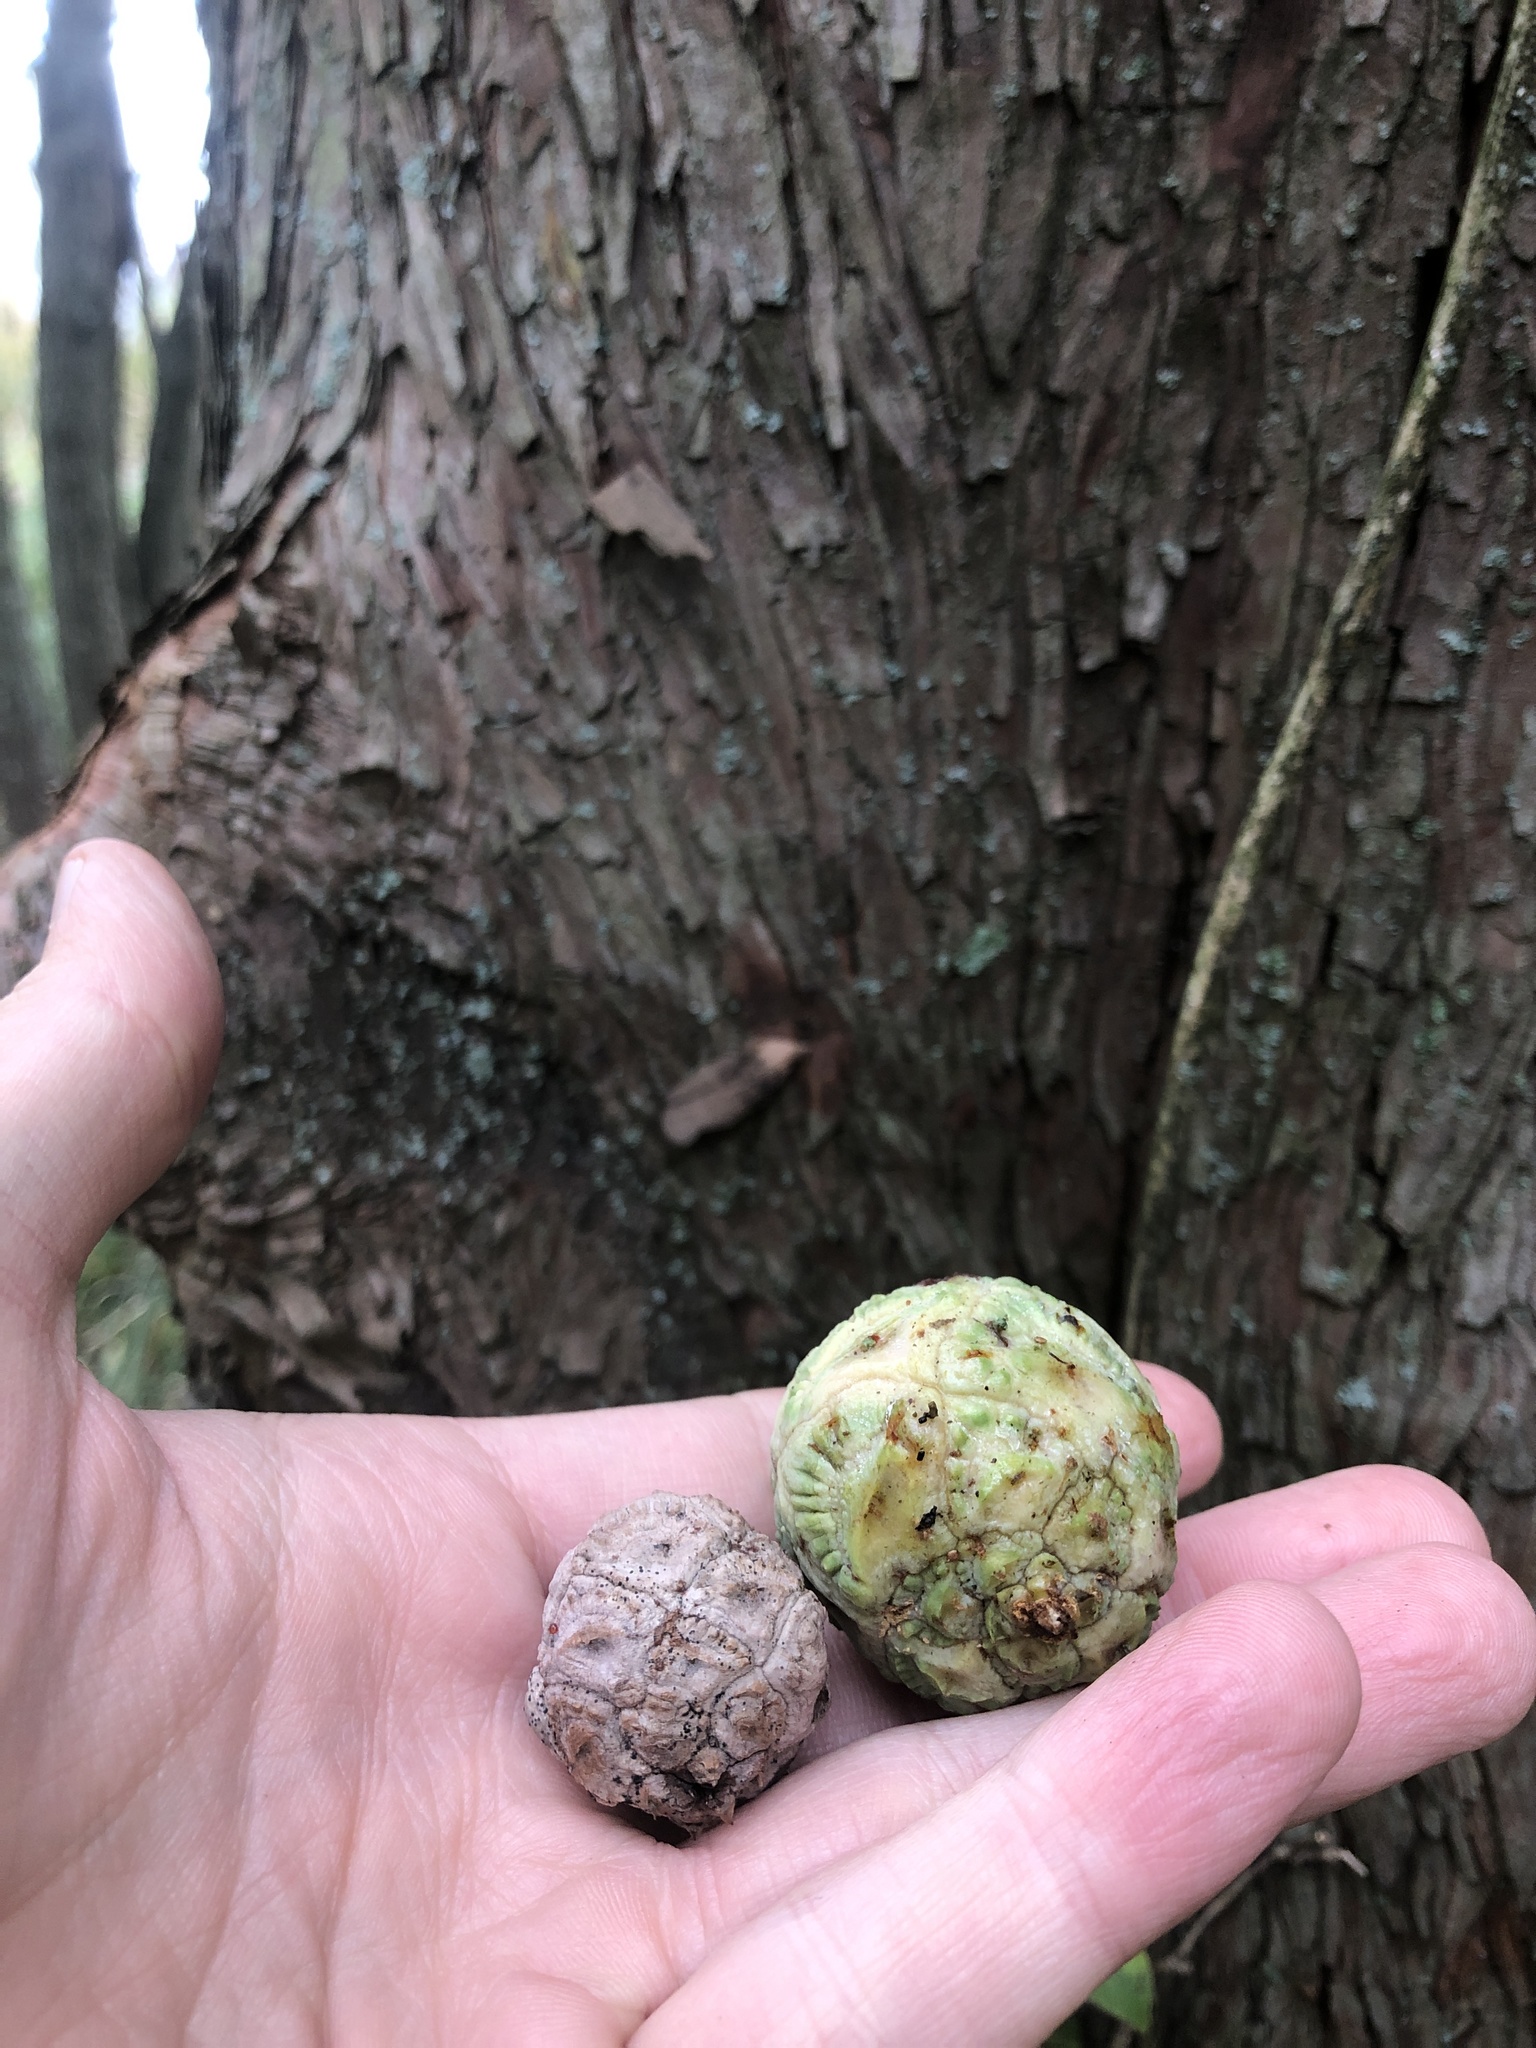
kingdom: Plantae
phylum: Tracheophyta
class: Pinopsida
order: Pinales
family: Cupressaceae
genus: Taxodium
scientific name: Taxodium distichum
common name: Bald cypress
